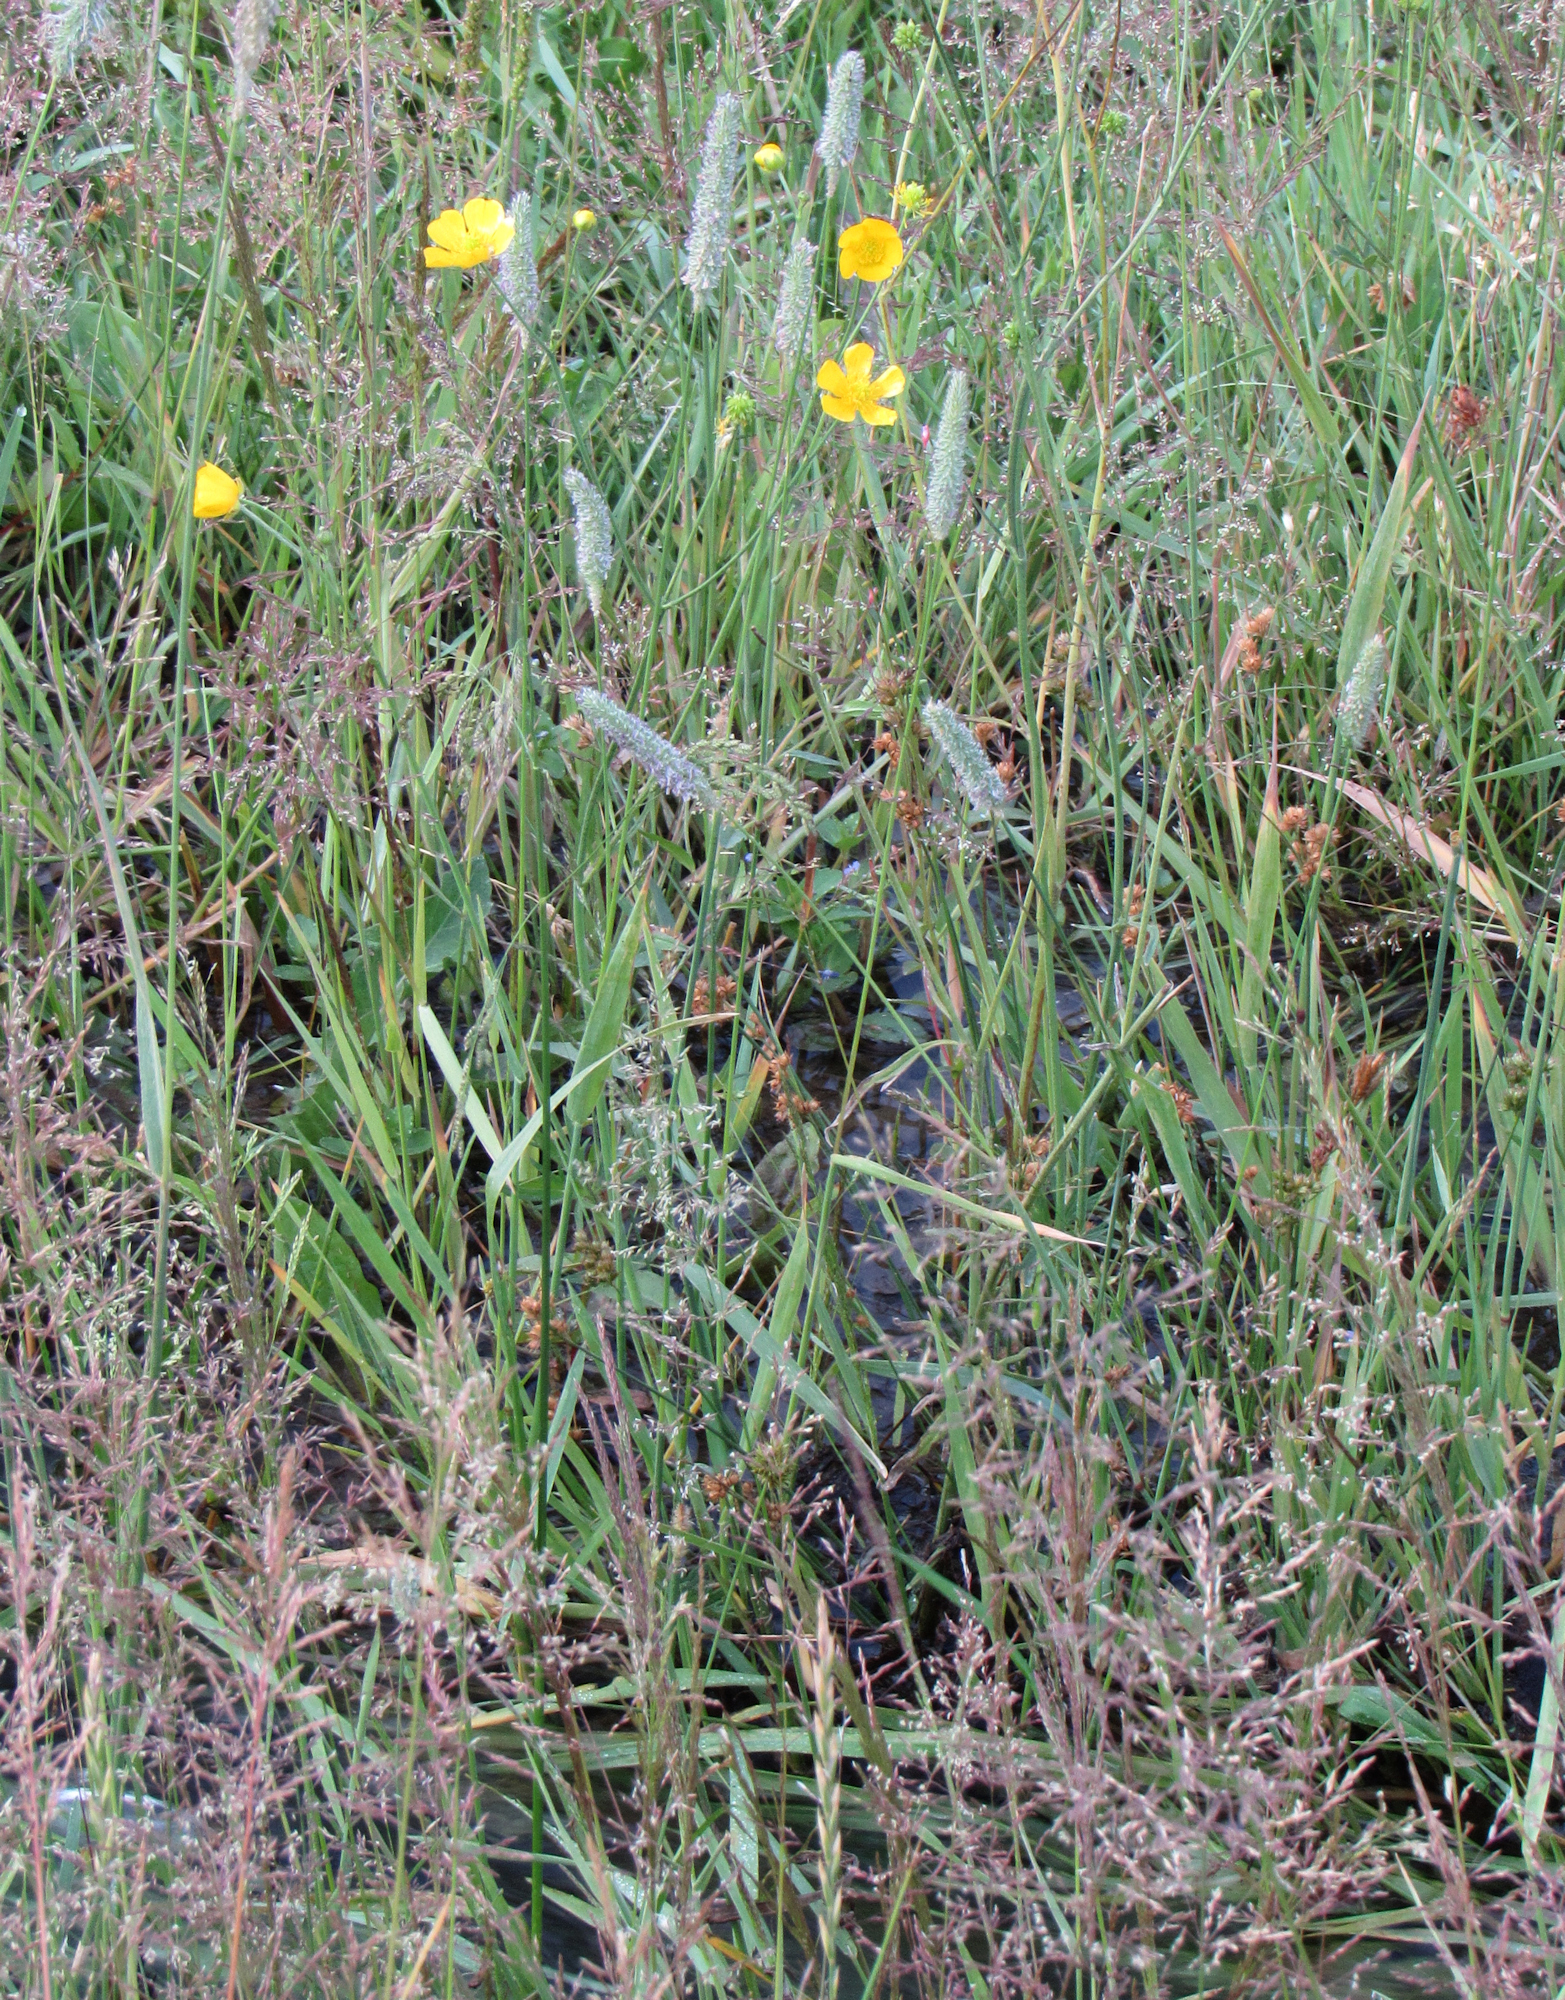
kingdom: Plantae
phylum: Tracheophyta
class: Liliopsida
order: Poales
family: Poaceae
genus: Phleum
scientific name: Phleum pratense
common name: Timothy grass
